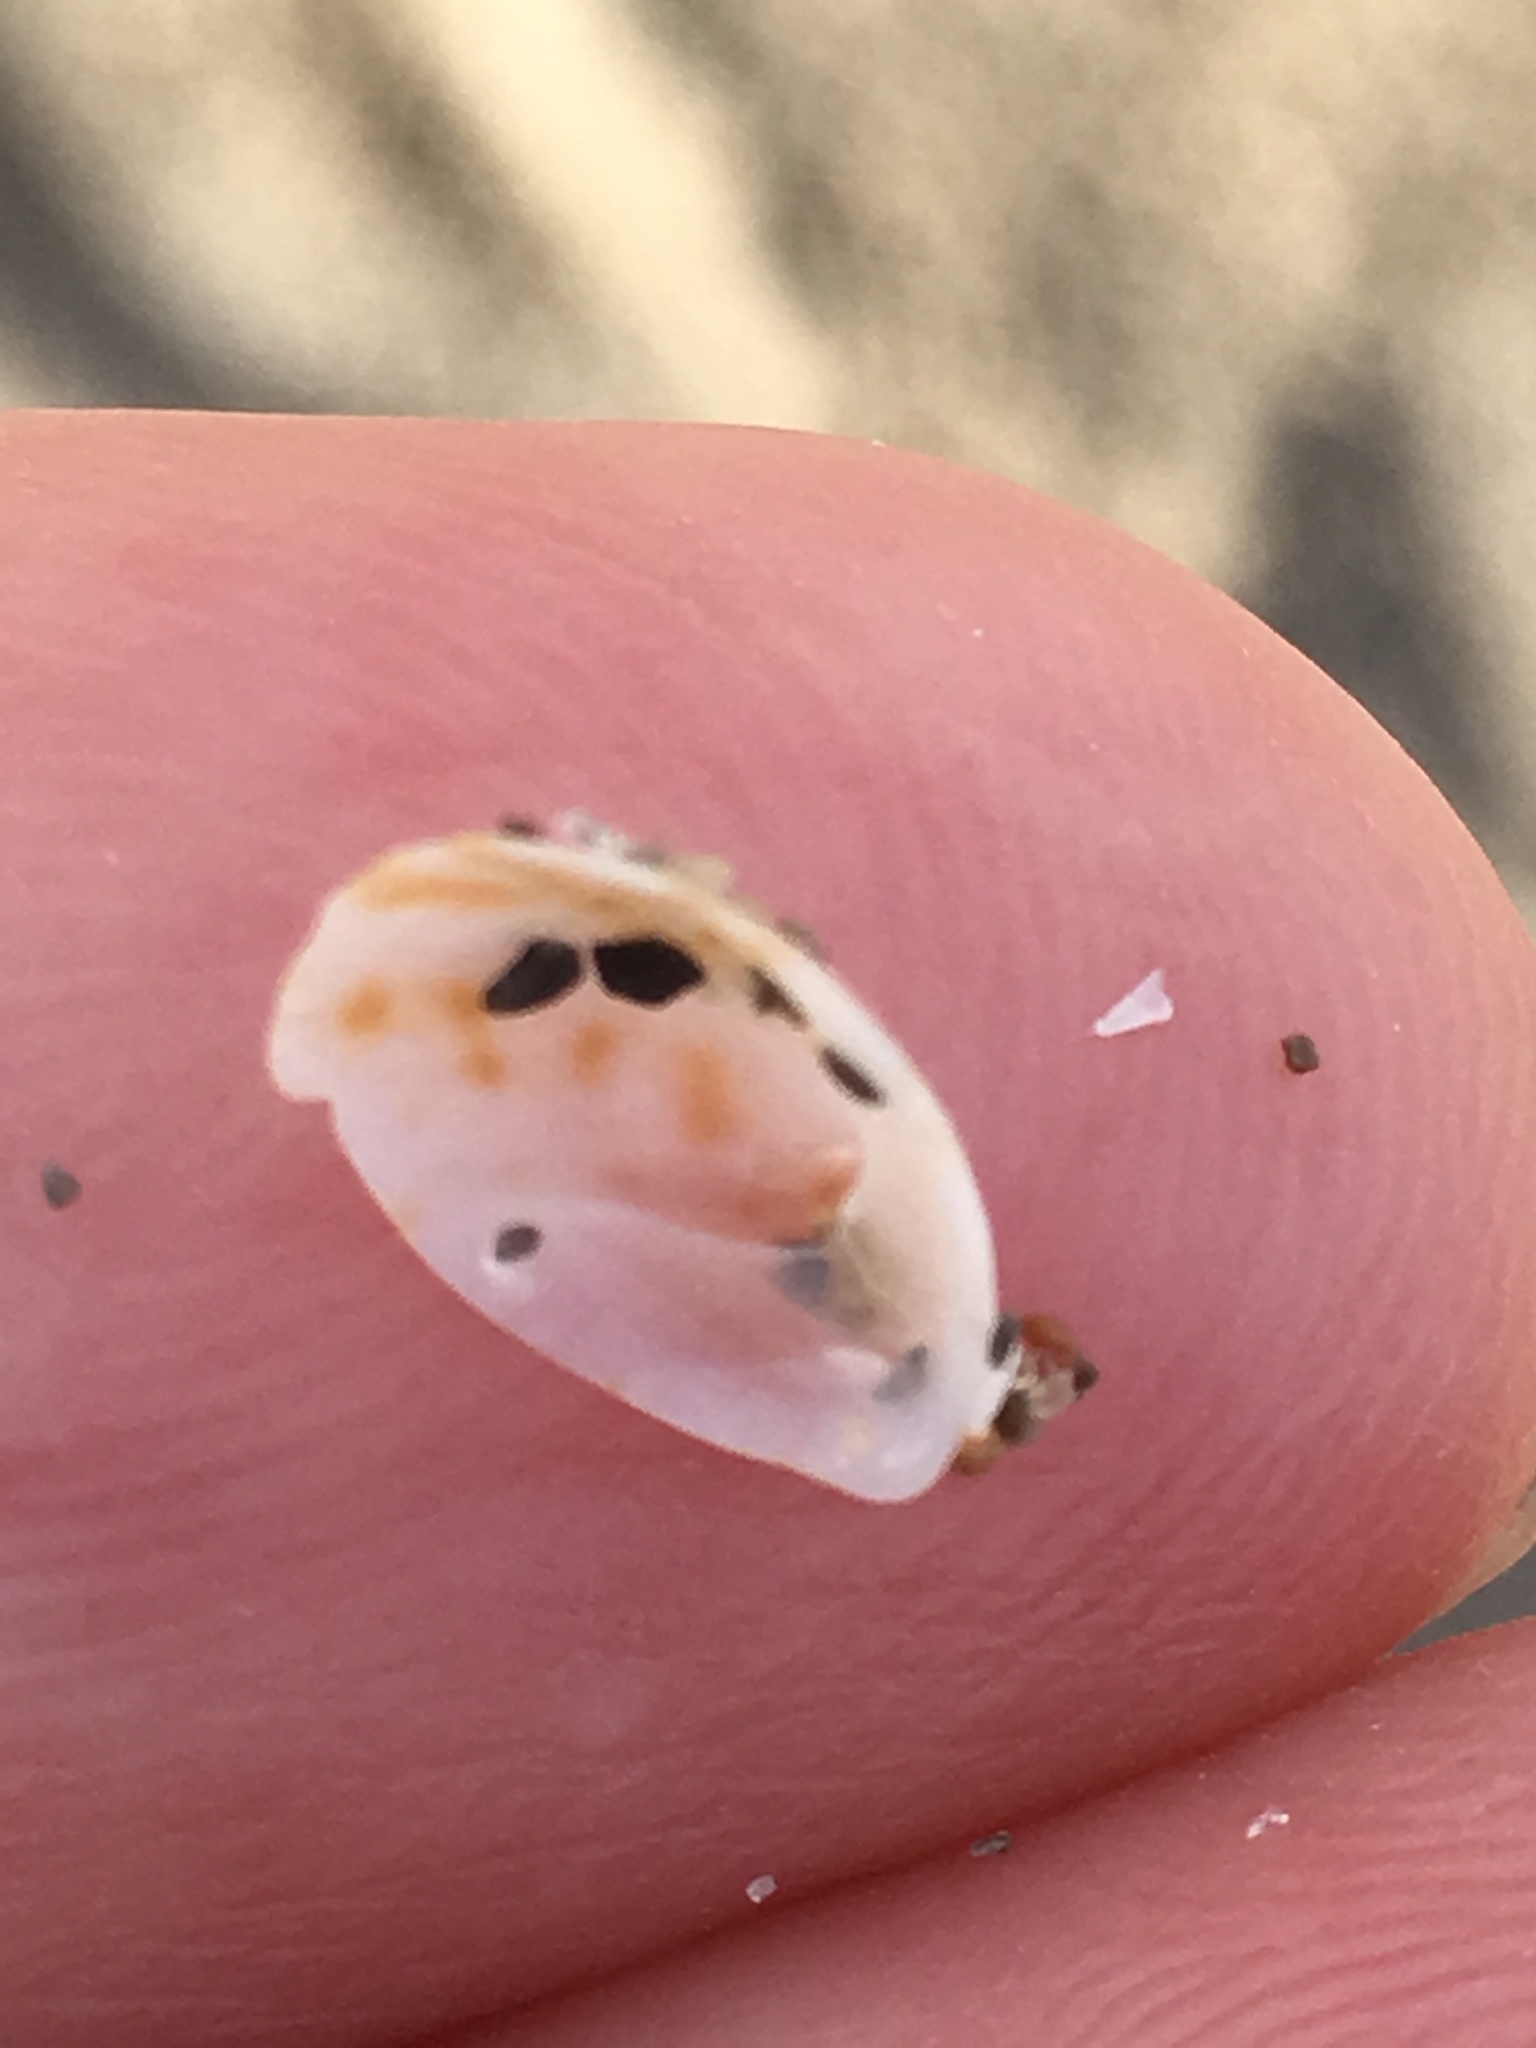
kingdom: Animalia
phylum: Mollusca
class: Gastropoda
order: Littorinimorpha
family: Calyptraeidae
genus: Crepidula
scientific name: Crepidula maculosa
